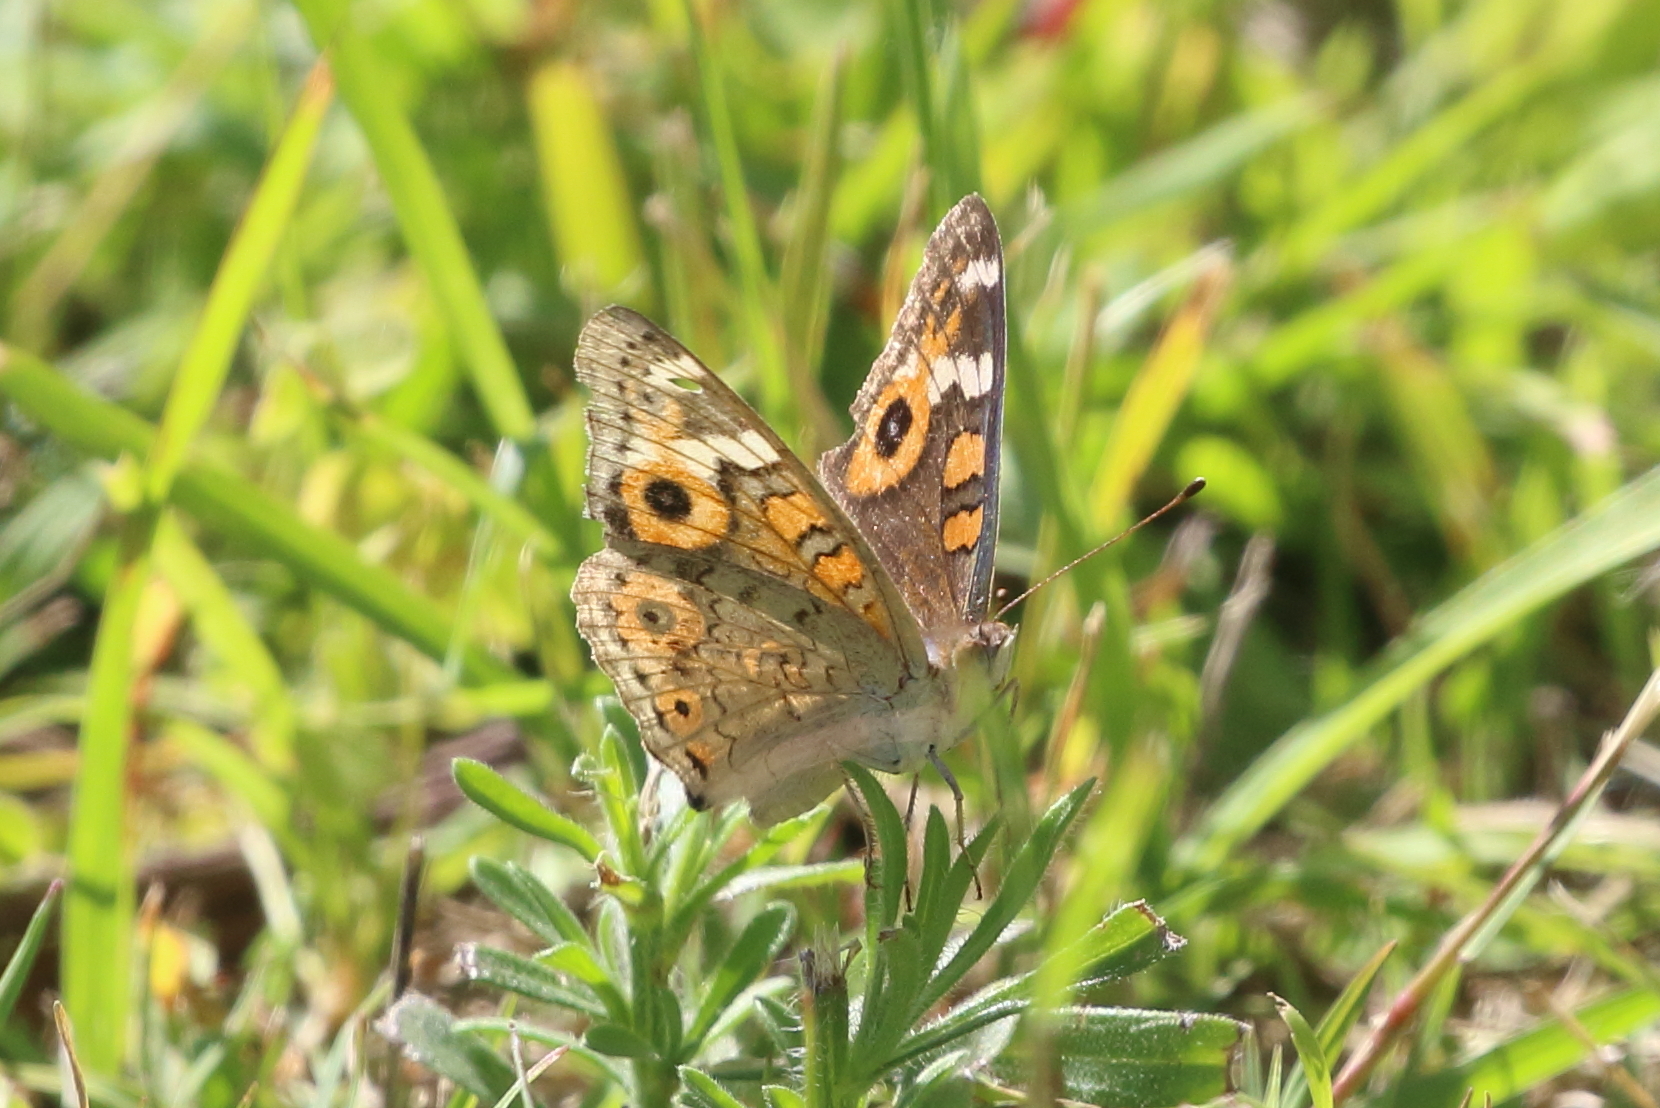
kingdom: Animalia
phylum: Arthropoda
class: Insecta
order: Lepidoptera
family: Nymphalidae
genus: Junonia
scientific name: Junonia villida
